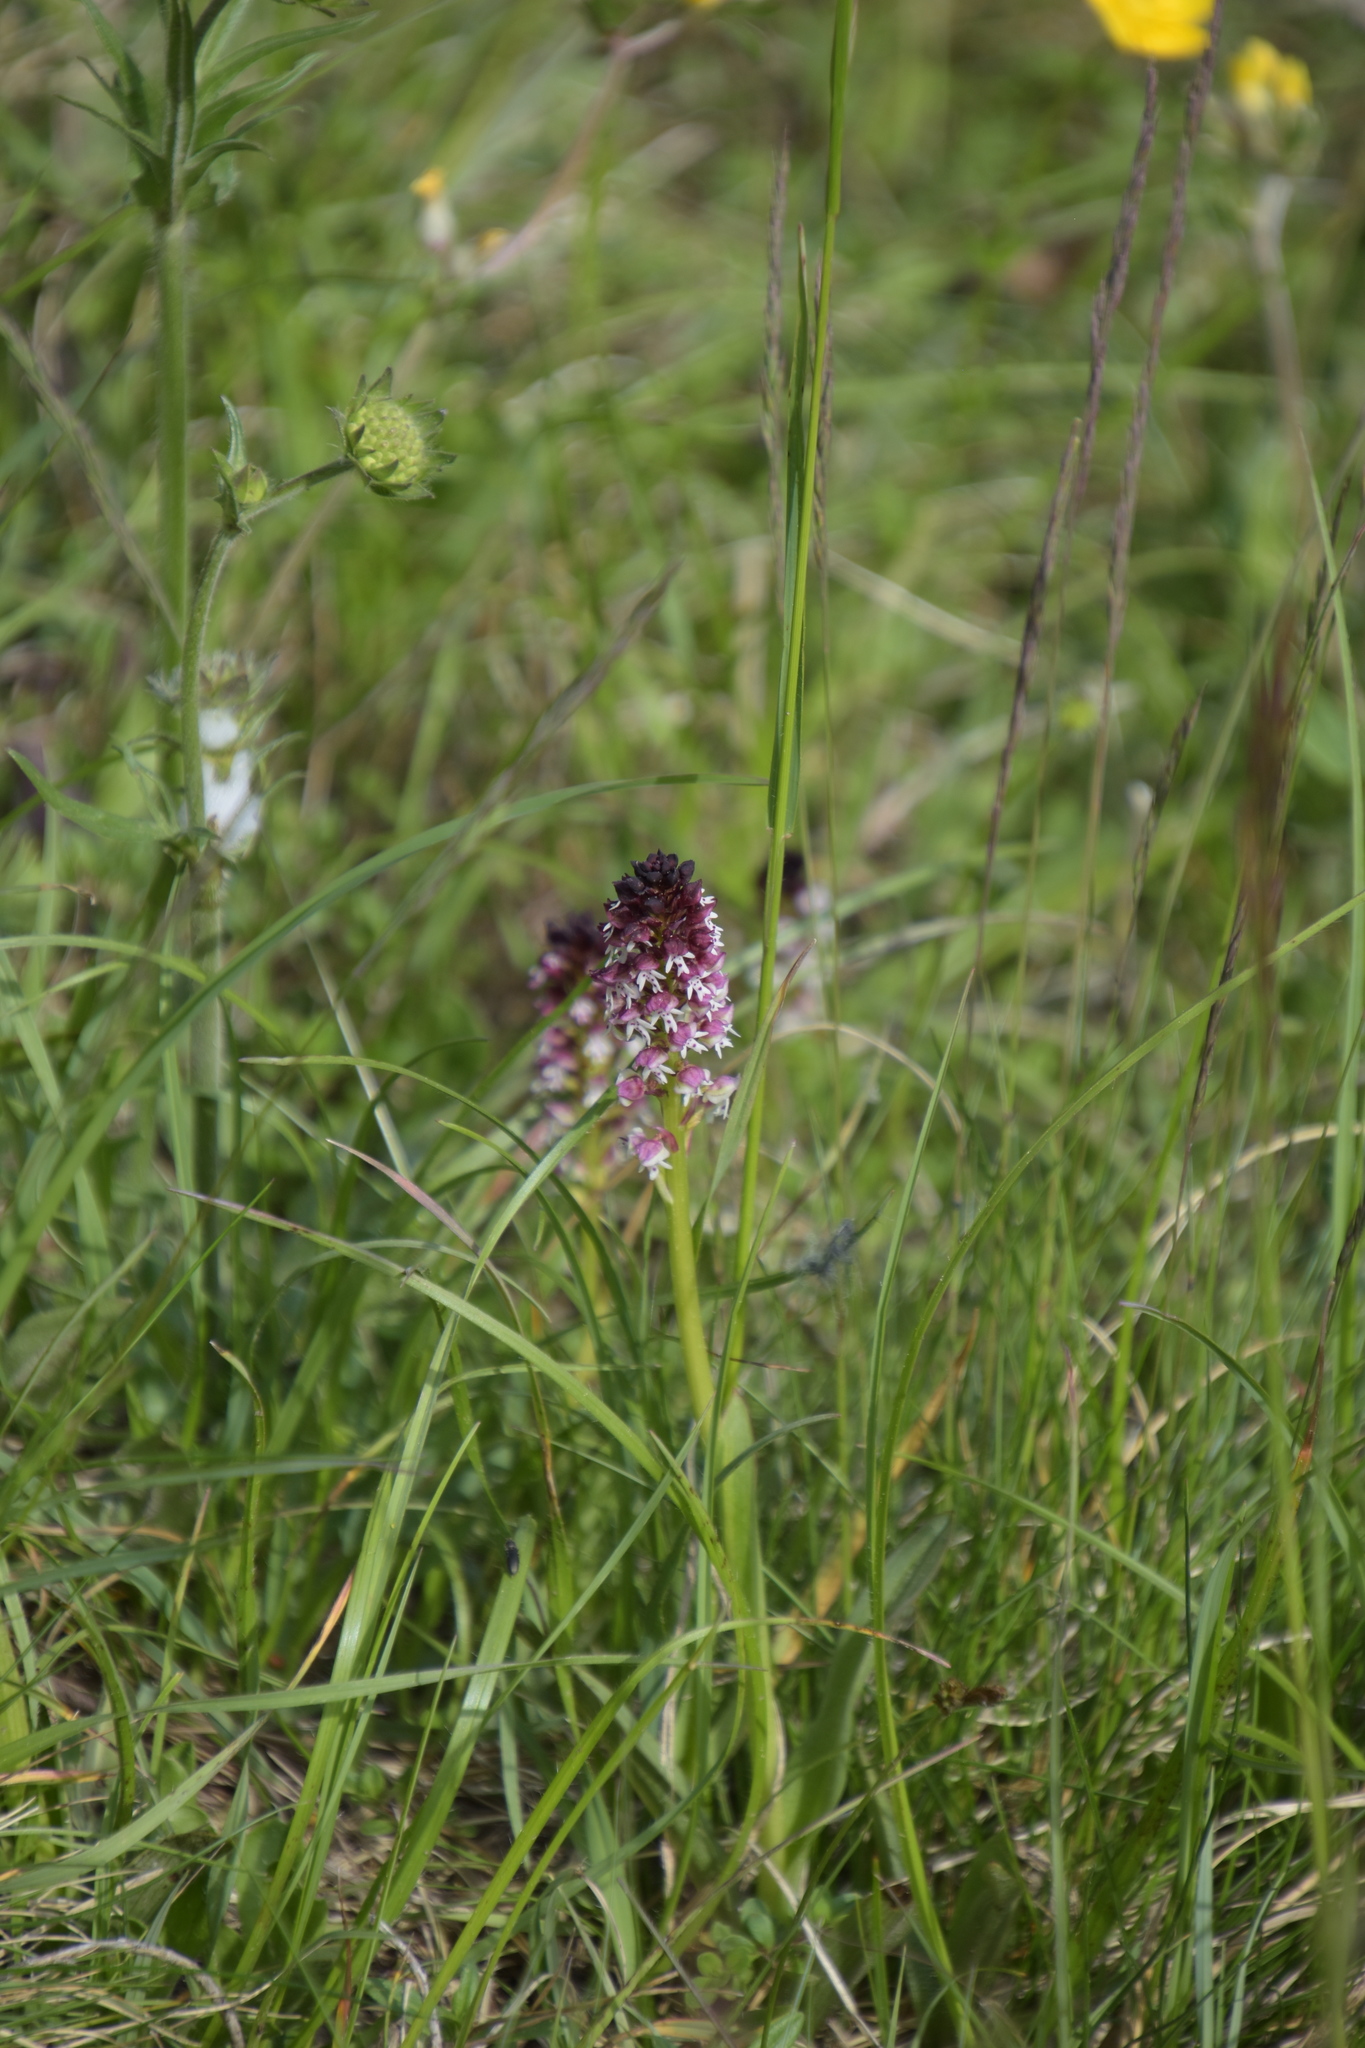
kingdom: Plantae
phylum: Tracheophyta
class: Liliopsida
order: Asparagales
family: Orchidaceae
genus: Neotinea
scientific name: Neotinea ustulata
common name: Burnt orchid
